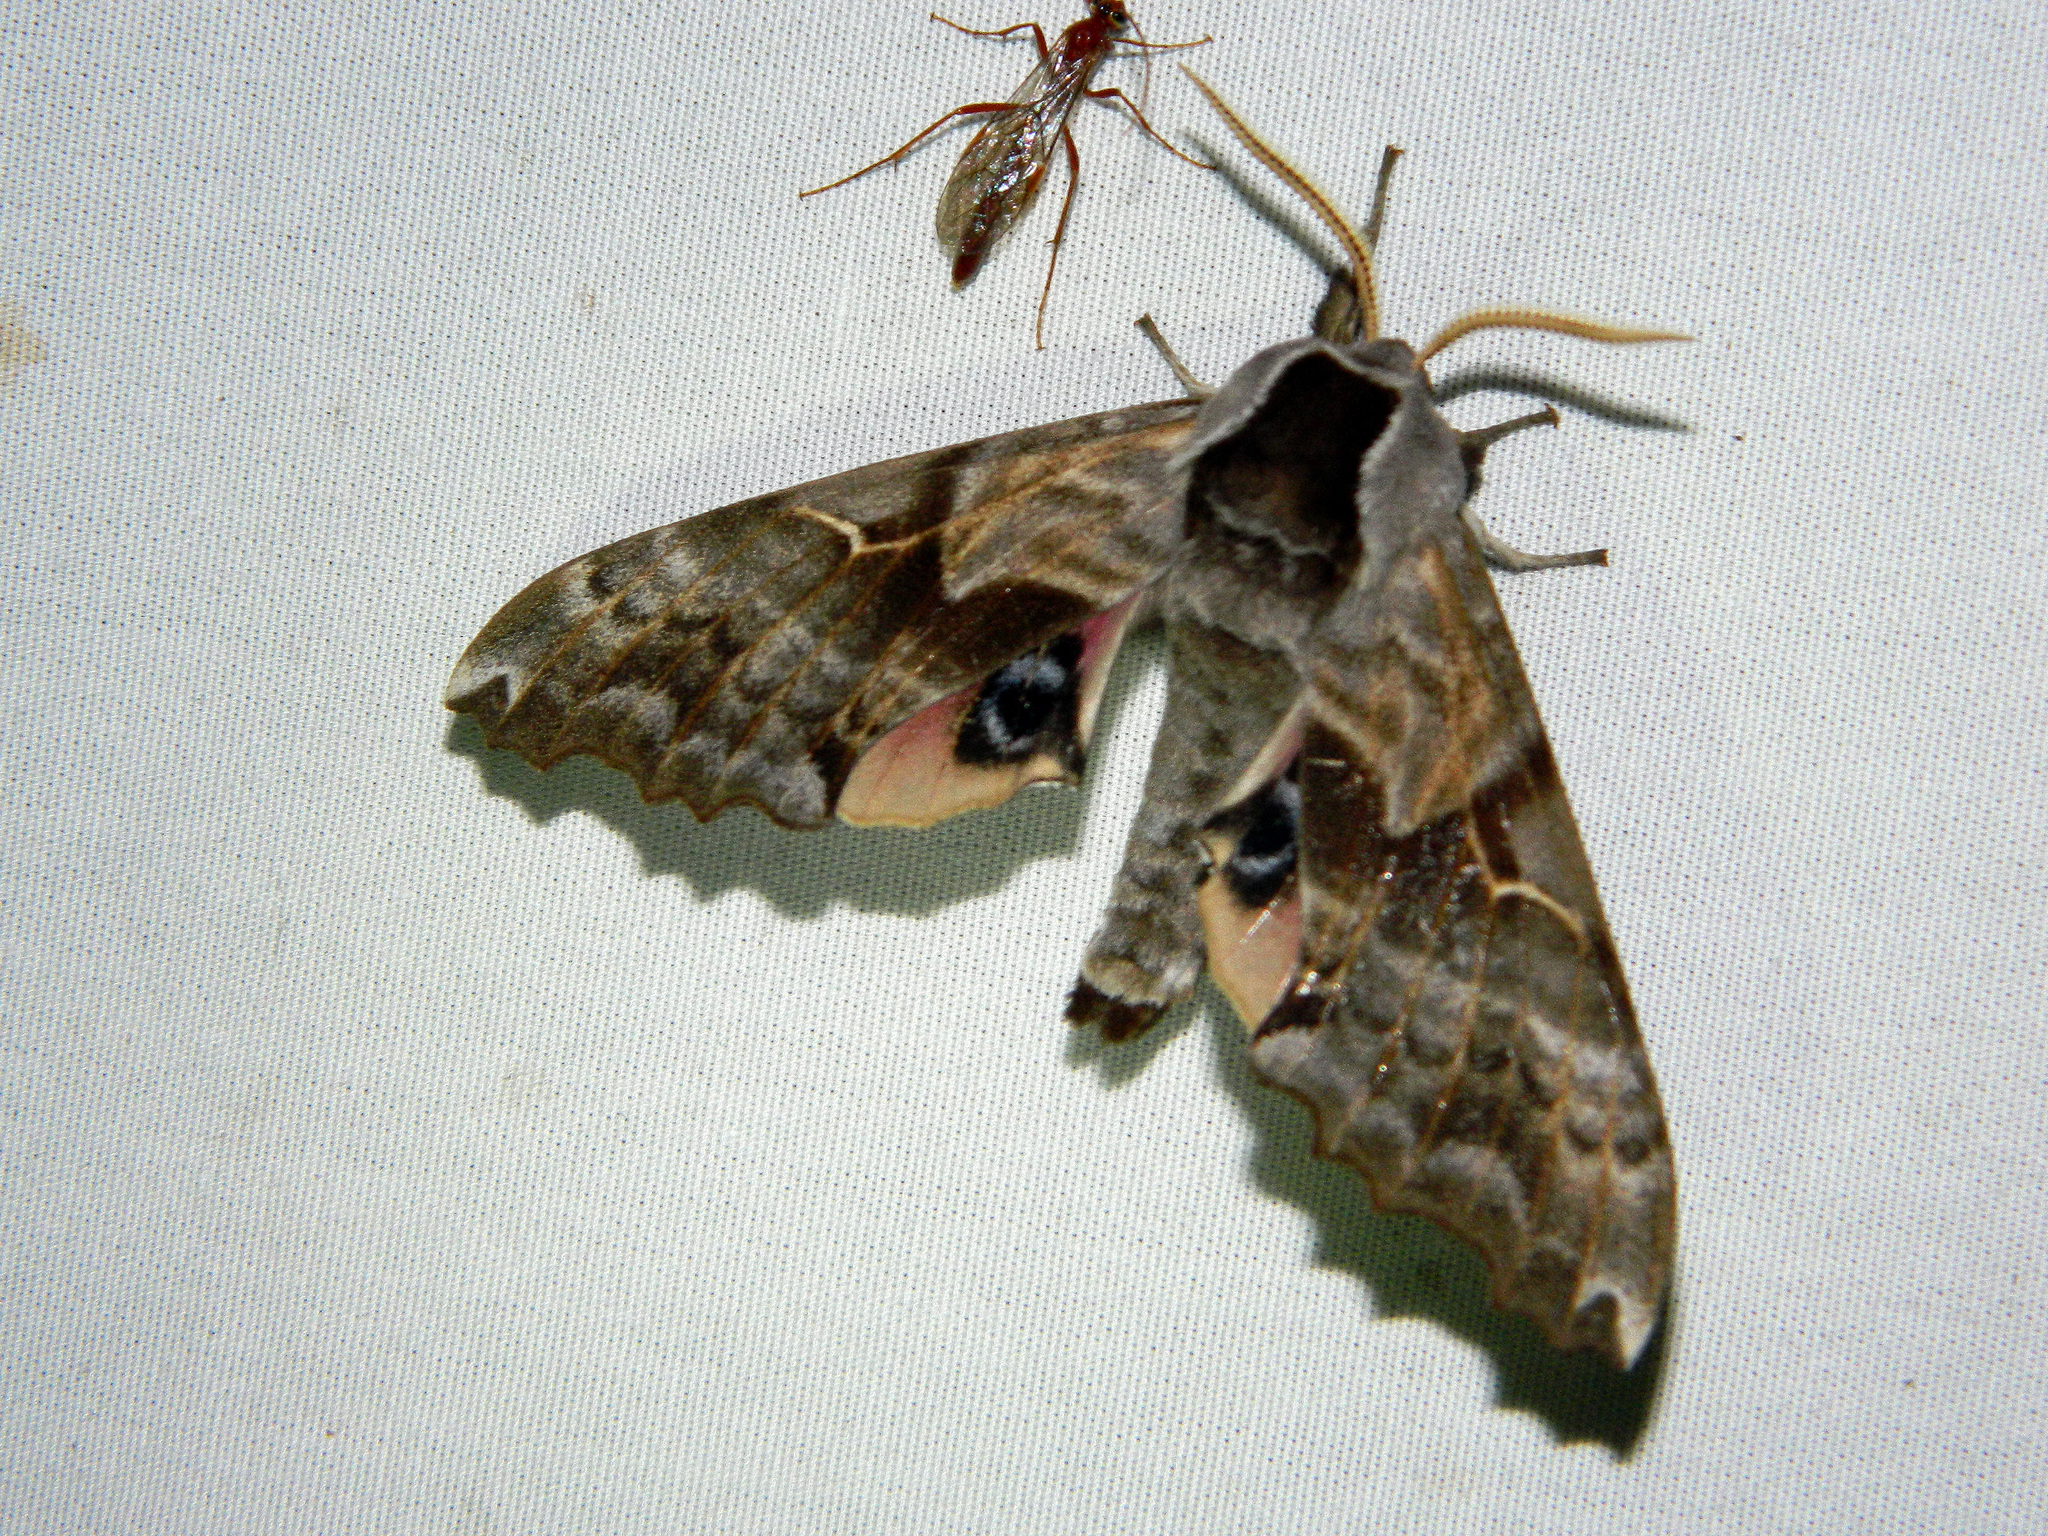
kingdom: Animalia
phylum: Arthropoda
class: Insecta
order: Lepidoptera
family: Sphingidae
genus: Smerinthus
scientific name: Smerinthus cerisyi
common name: Cerisy's sphinx moth
